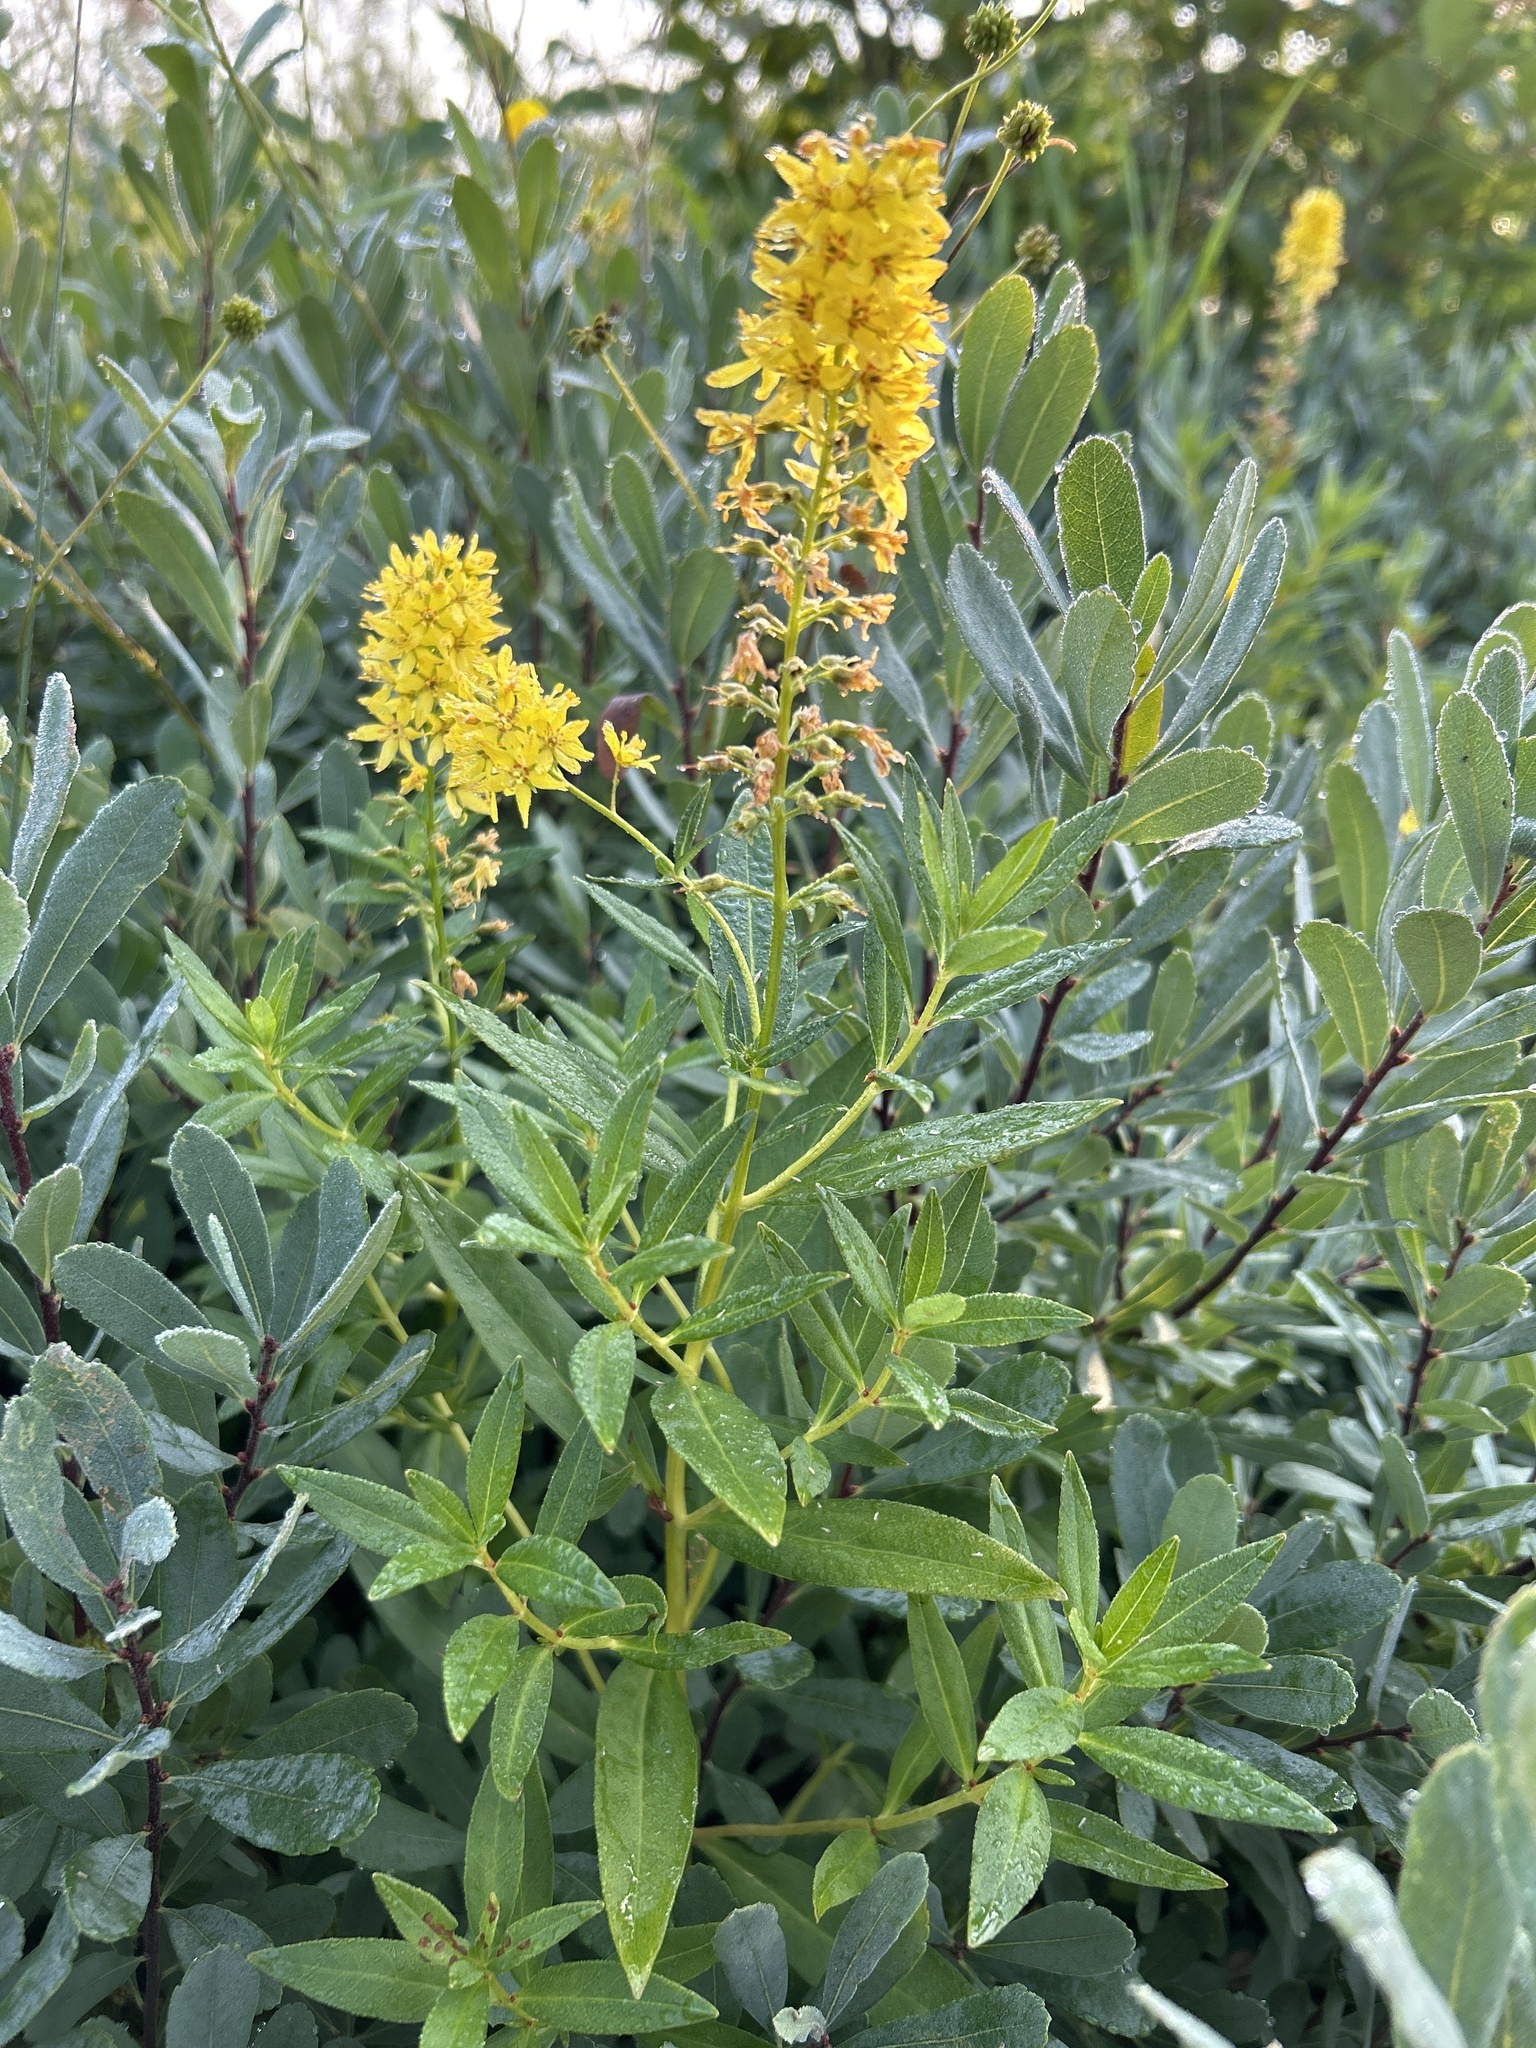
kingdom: Plantae
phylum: Tracheophyta
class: Magnoliopsida
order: Ericales
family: Primulaceae
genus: Lysimachia
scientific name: Lysimachia terrestris
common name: Lake loosestrife
